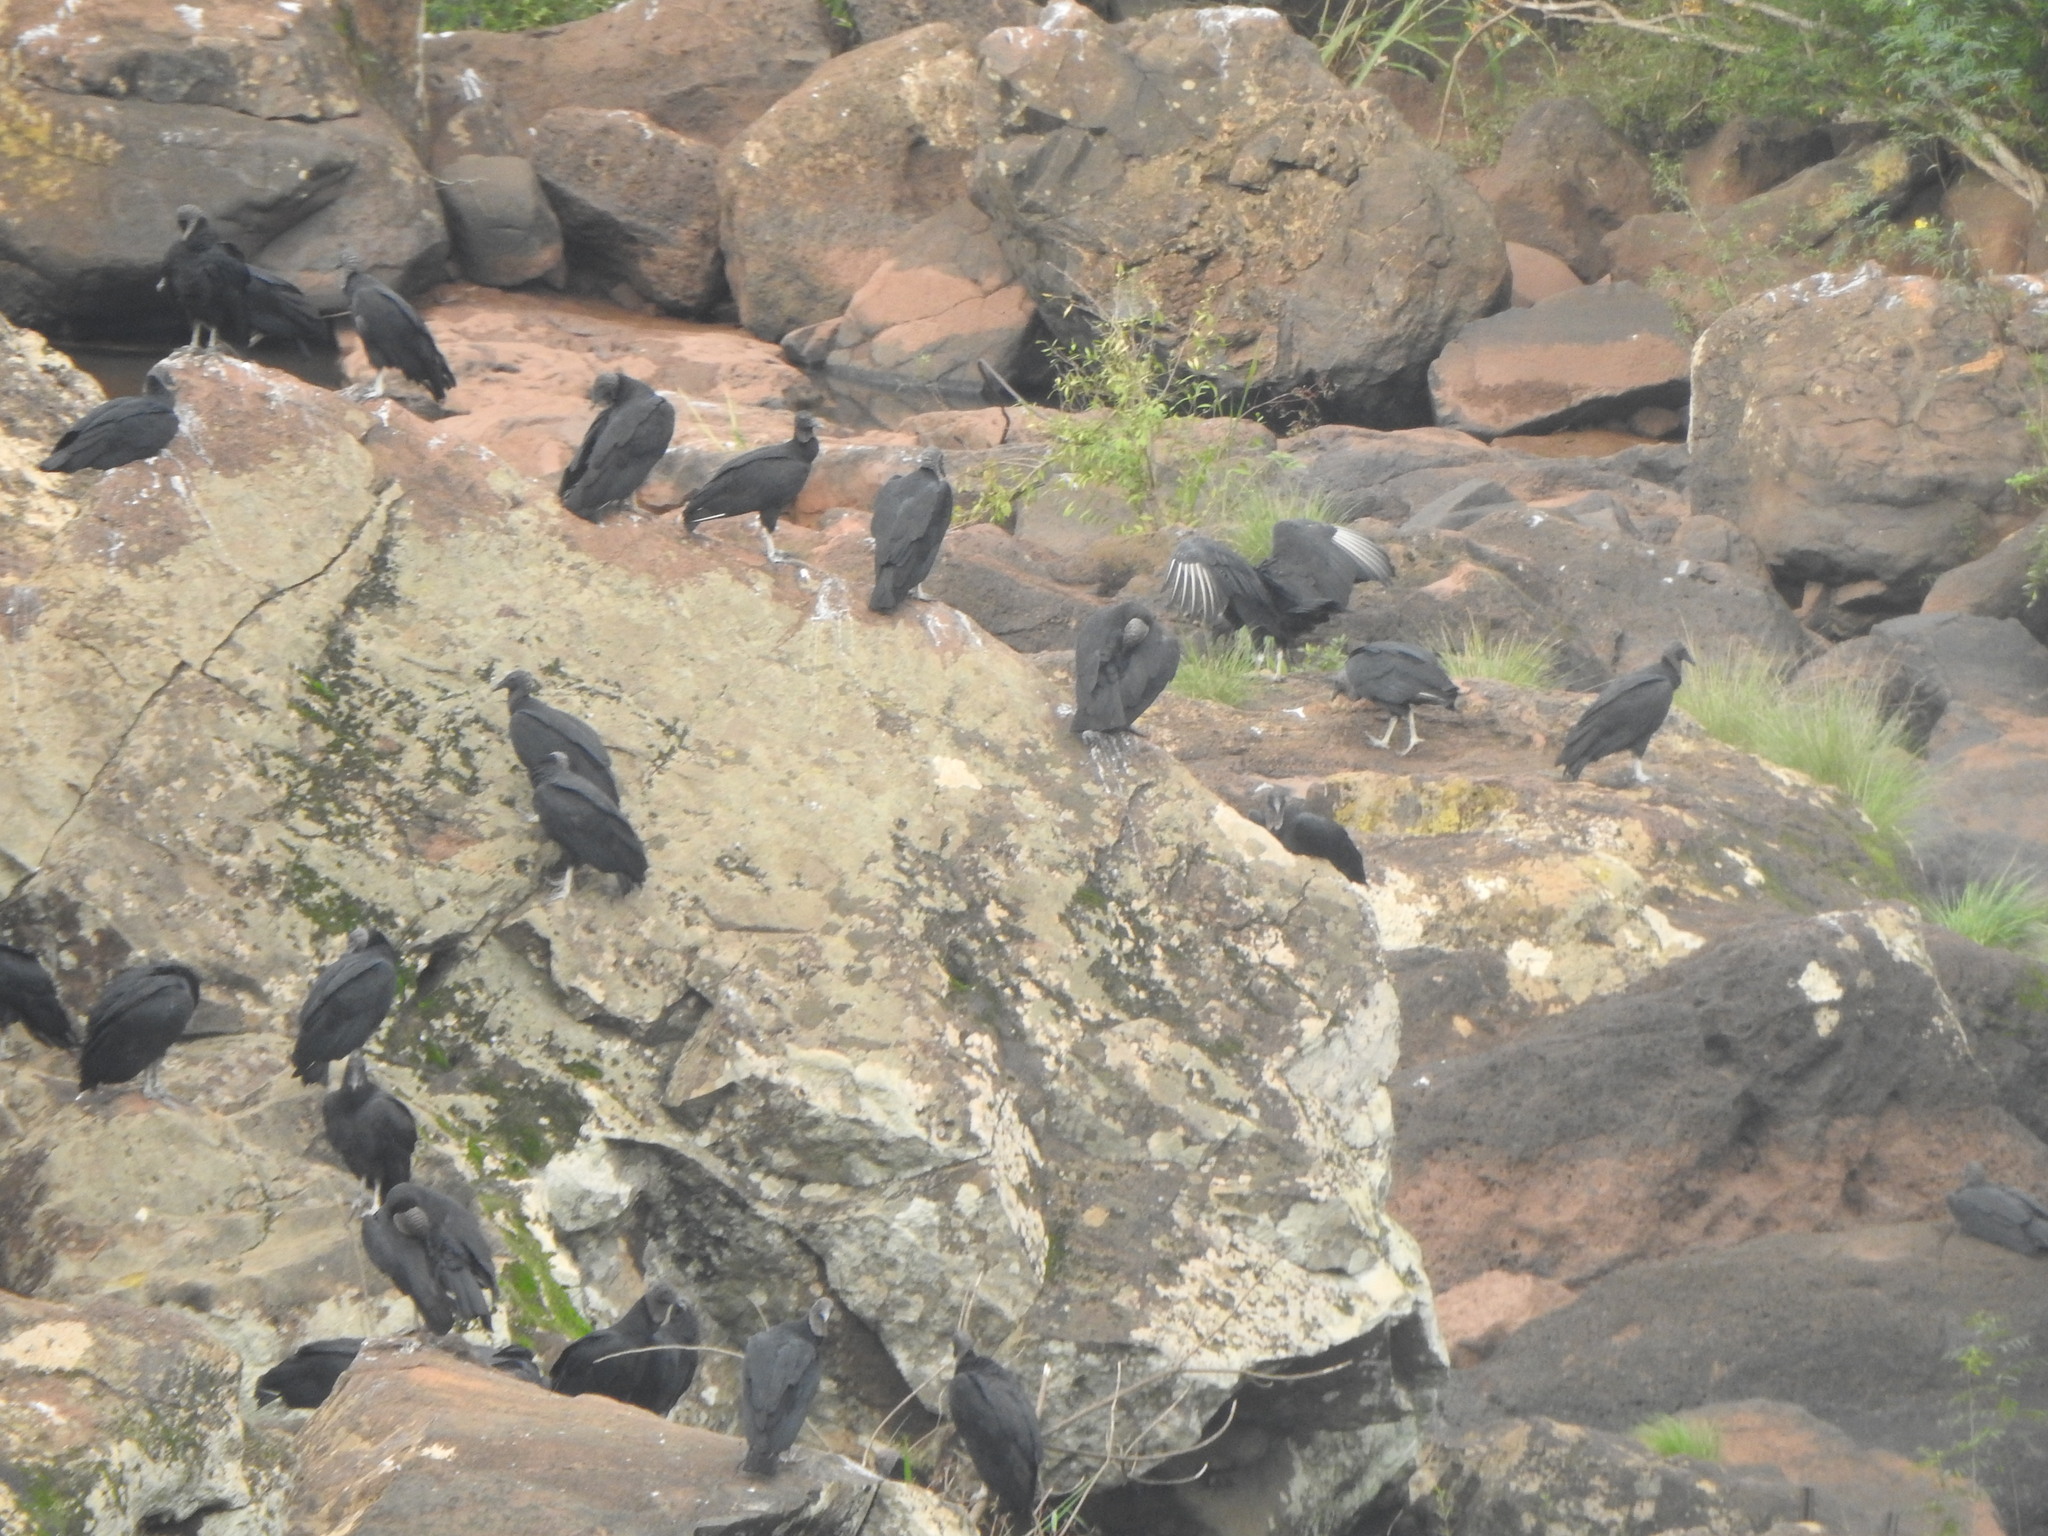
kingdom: Animalia
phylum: Chordata
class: Aves
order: Accipitriformes
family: Cathartidae
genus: Coragyps
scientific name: Coragyps atratus
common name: Black vulture
